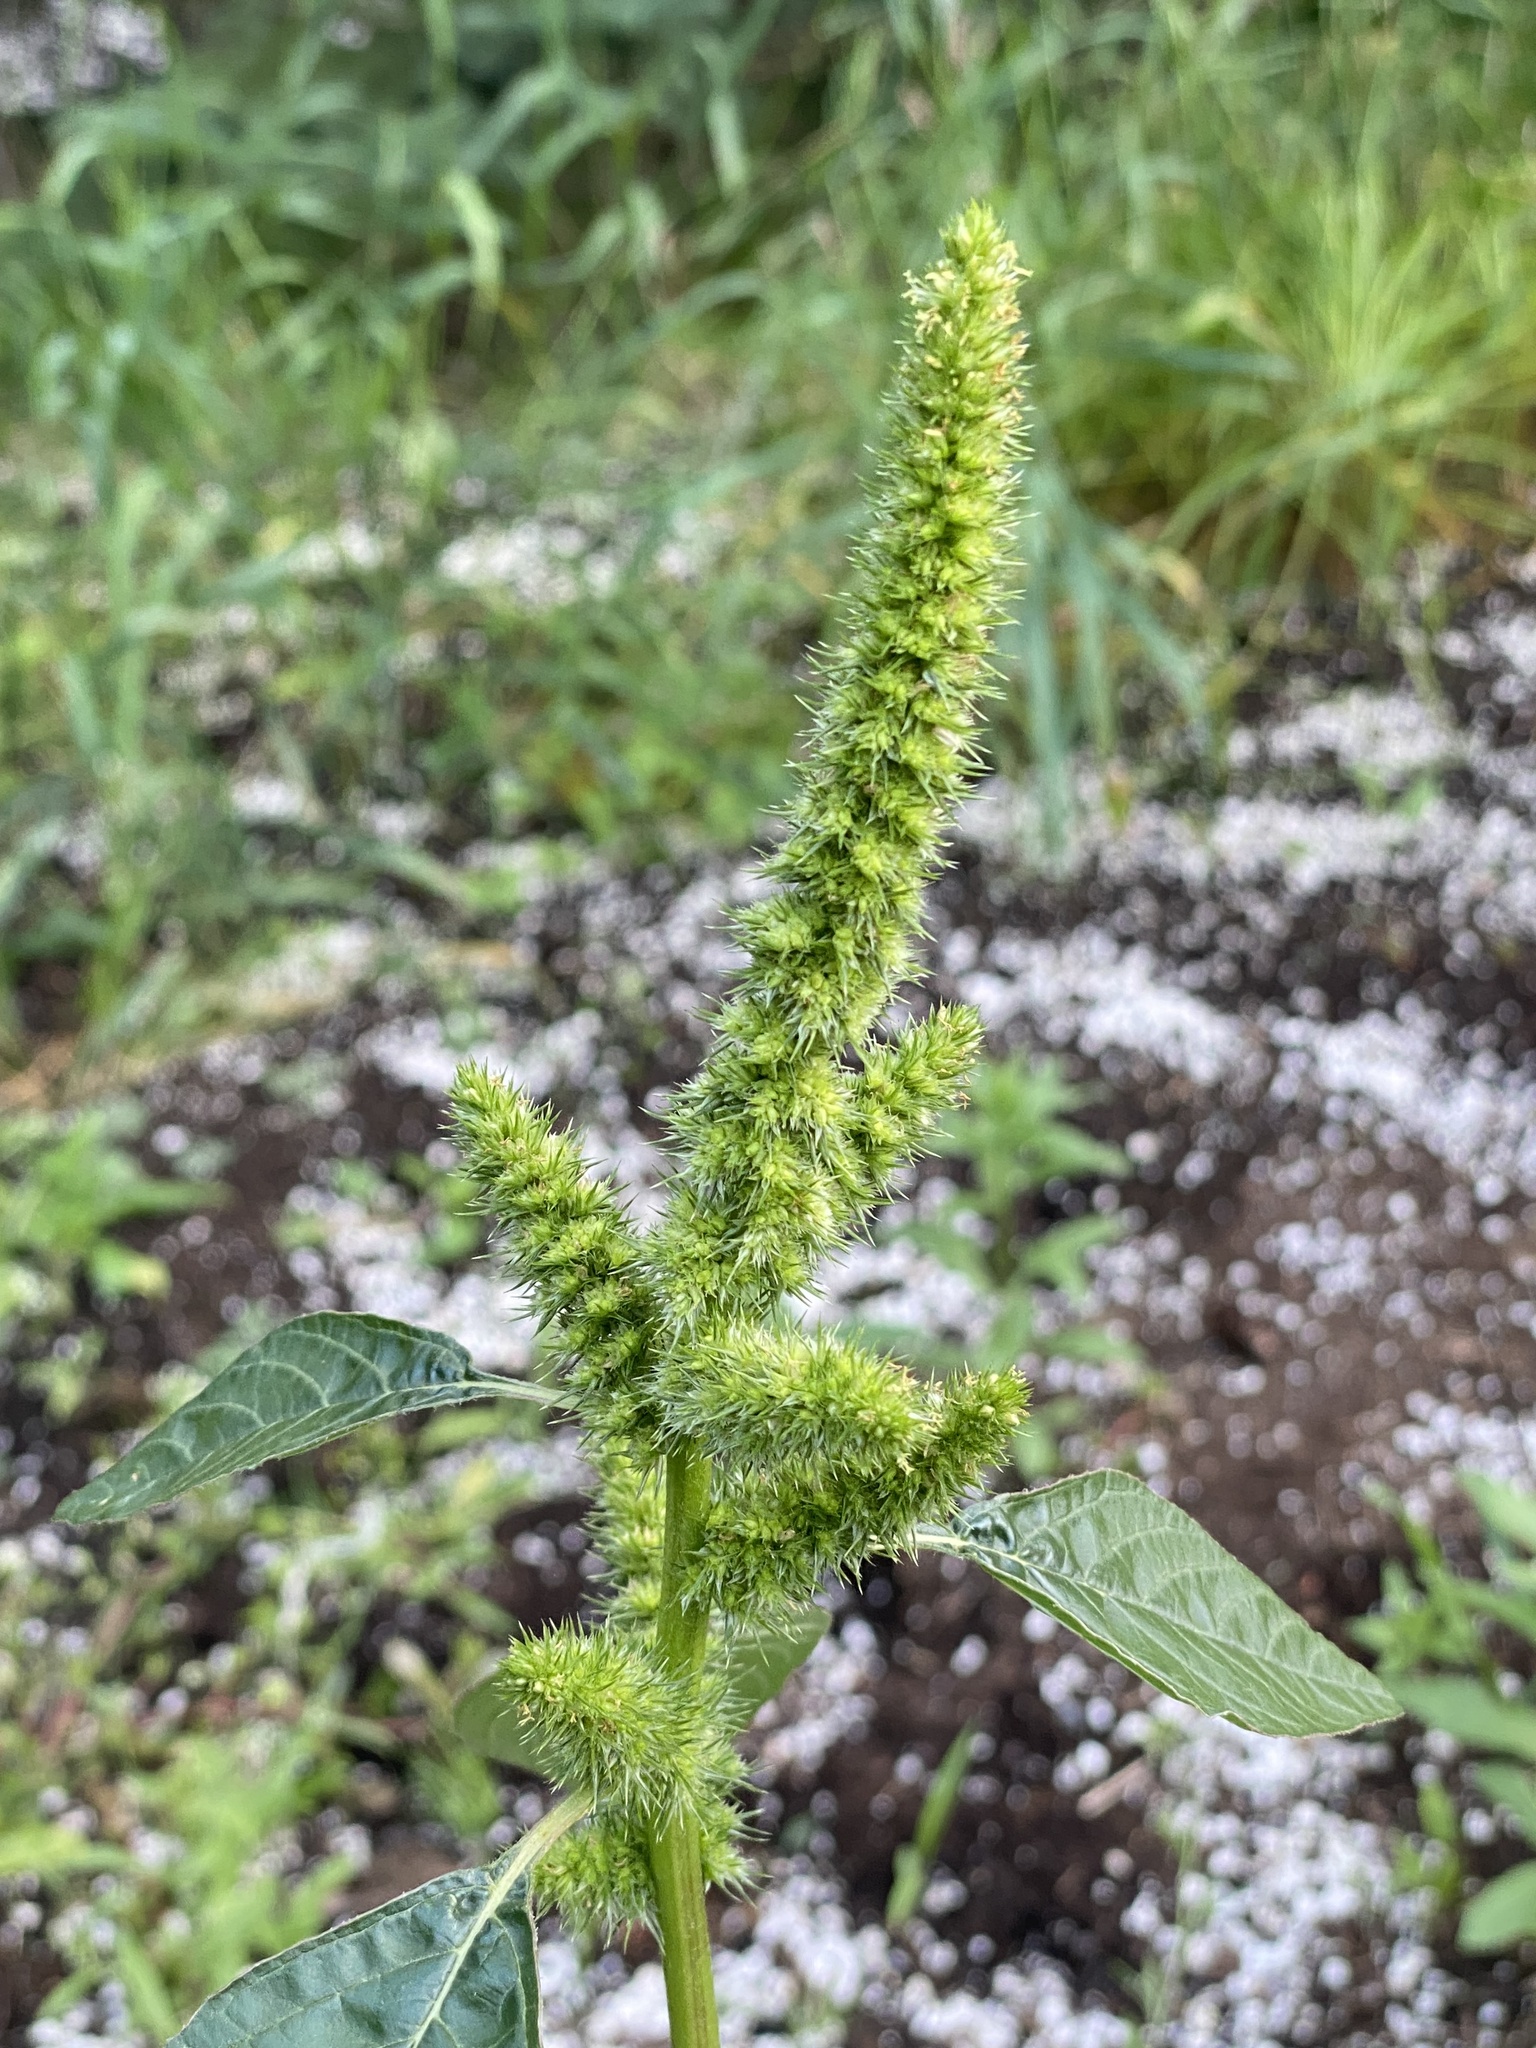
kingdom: Plantae
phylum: Tracheophyta
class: Magnoliopsida
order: Caryophyllales
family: Amaranthaceae
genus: Amaranthus
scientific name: Amaranthus hybridus
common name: Green amaranth
